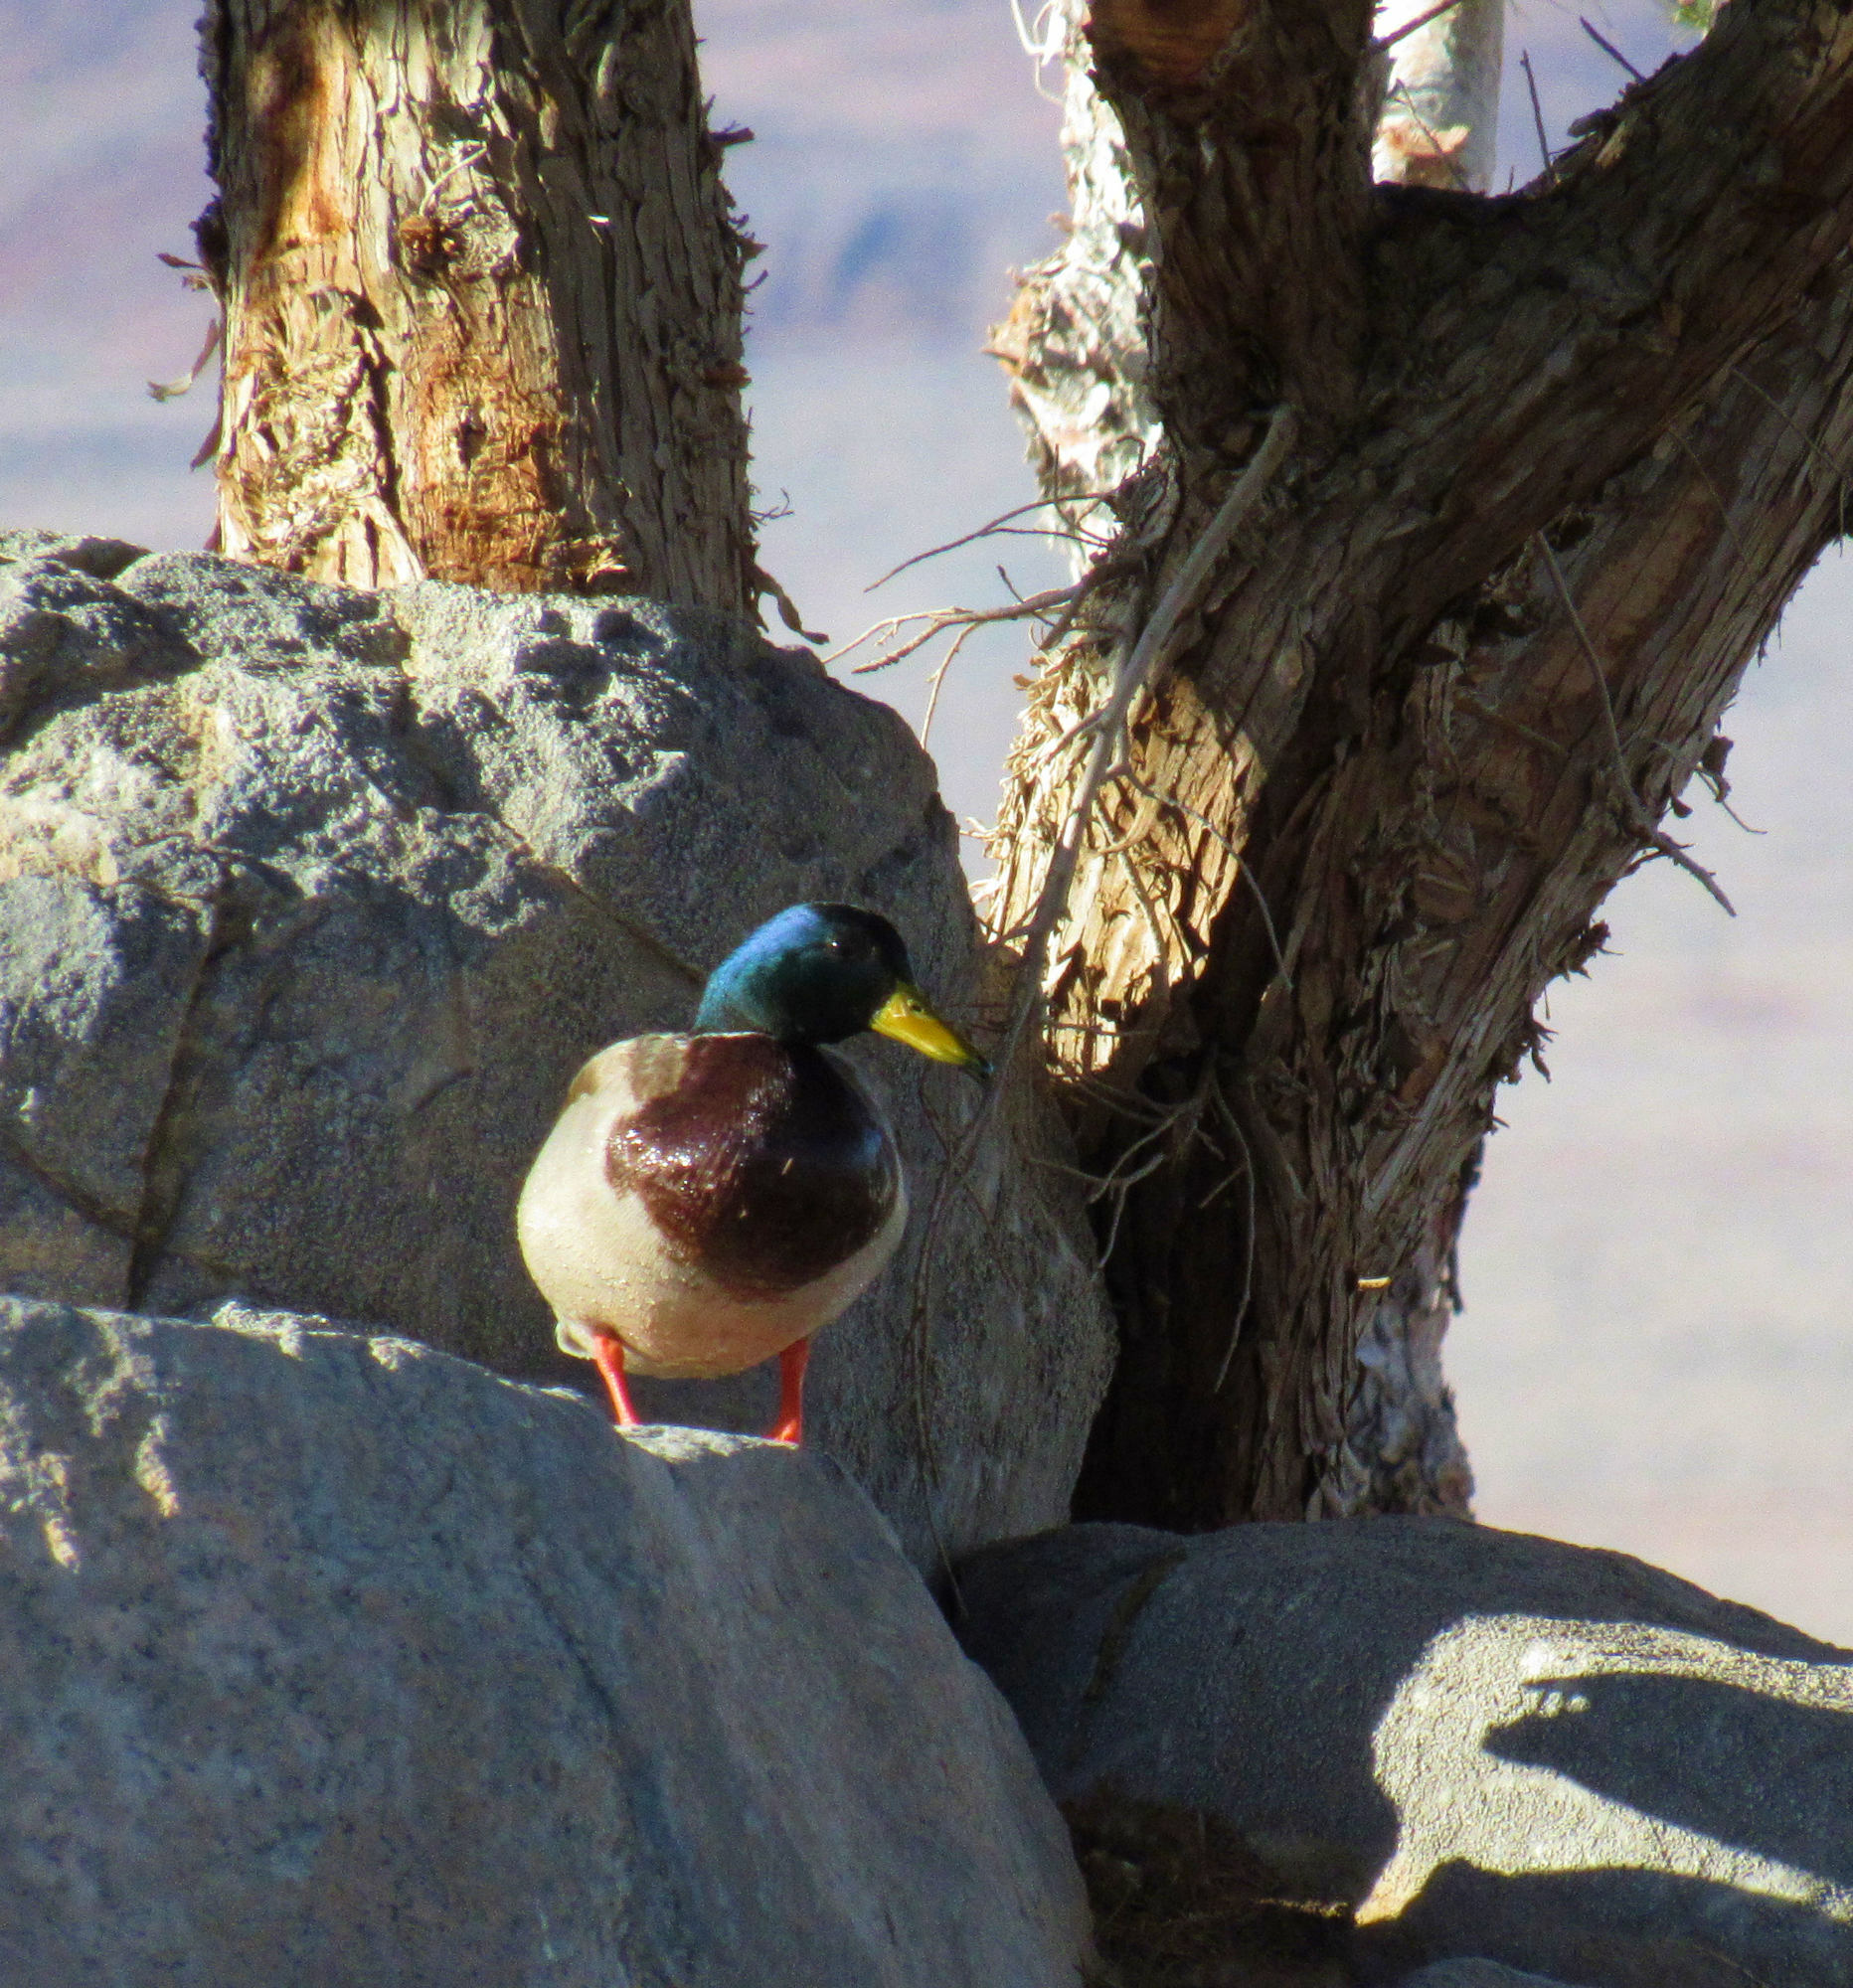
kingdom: Animalia
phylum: Chordata
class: Aves
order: Anseriformes
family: Anatidae
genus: Anas
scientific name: Anas platyrhynchos
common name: Mallard
